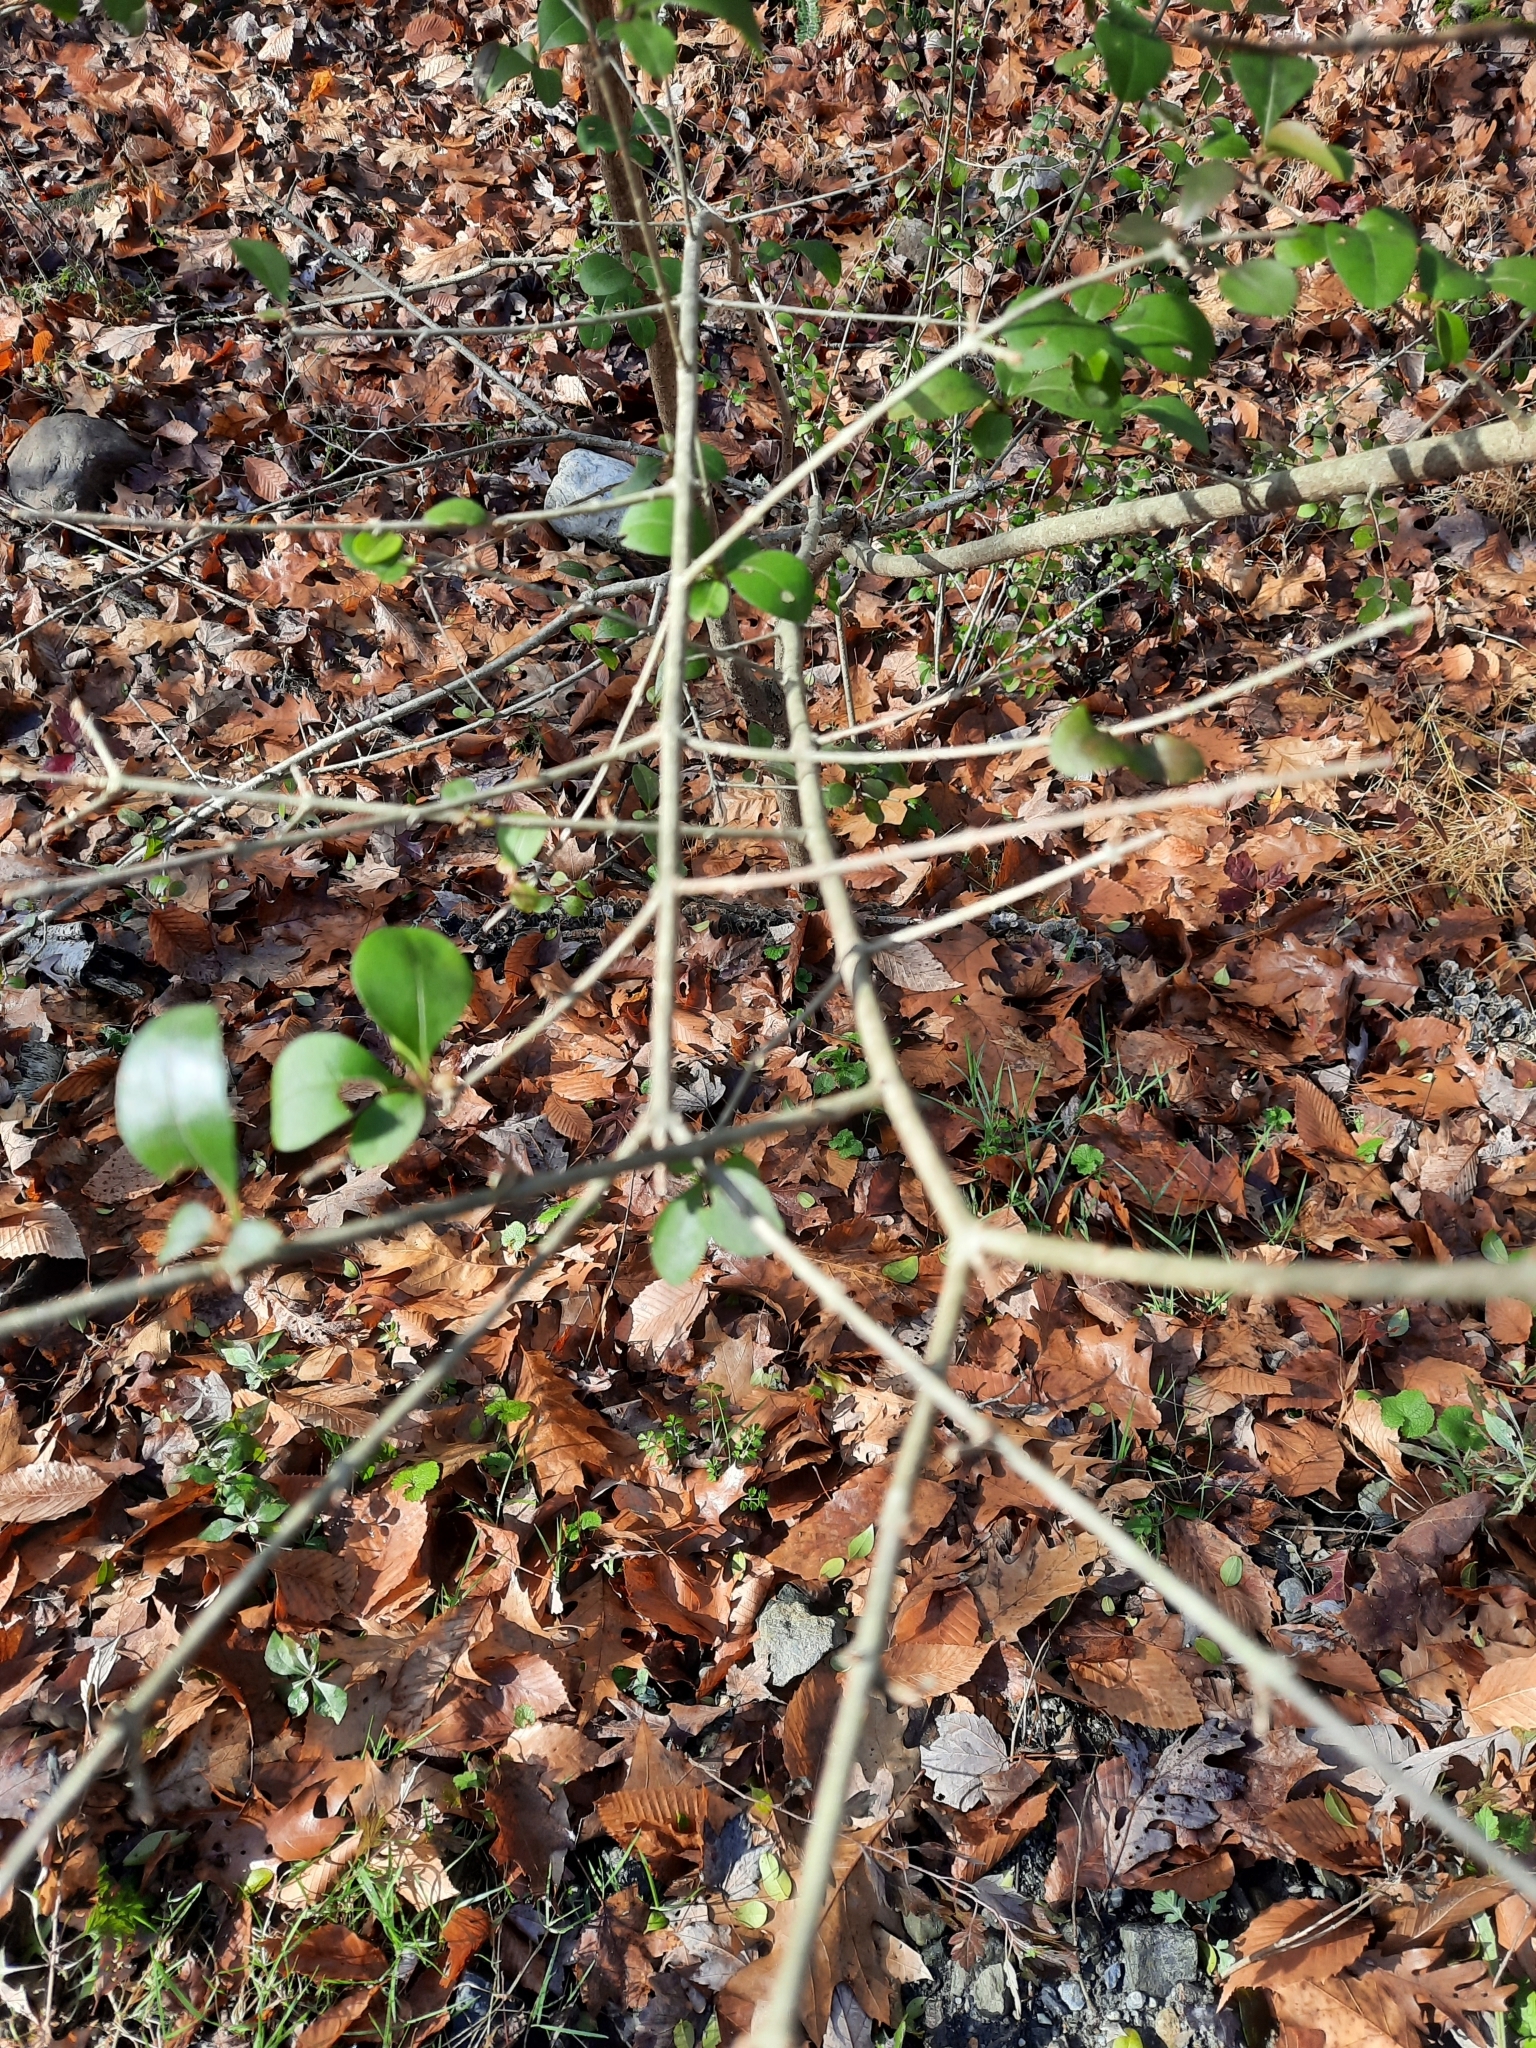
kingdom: Plantae
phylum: Tracheophyta
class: Magnoliopsida
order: Lamiales
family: Oleaceae
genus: Ligustrum
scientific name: Ligustrum obtusifolium
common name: Border privet
